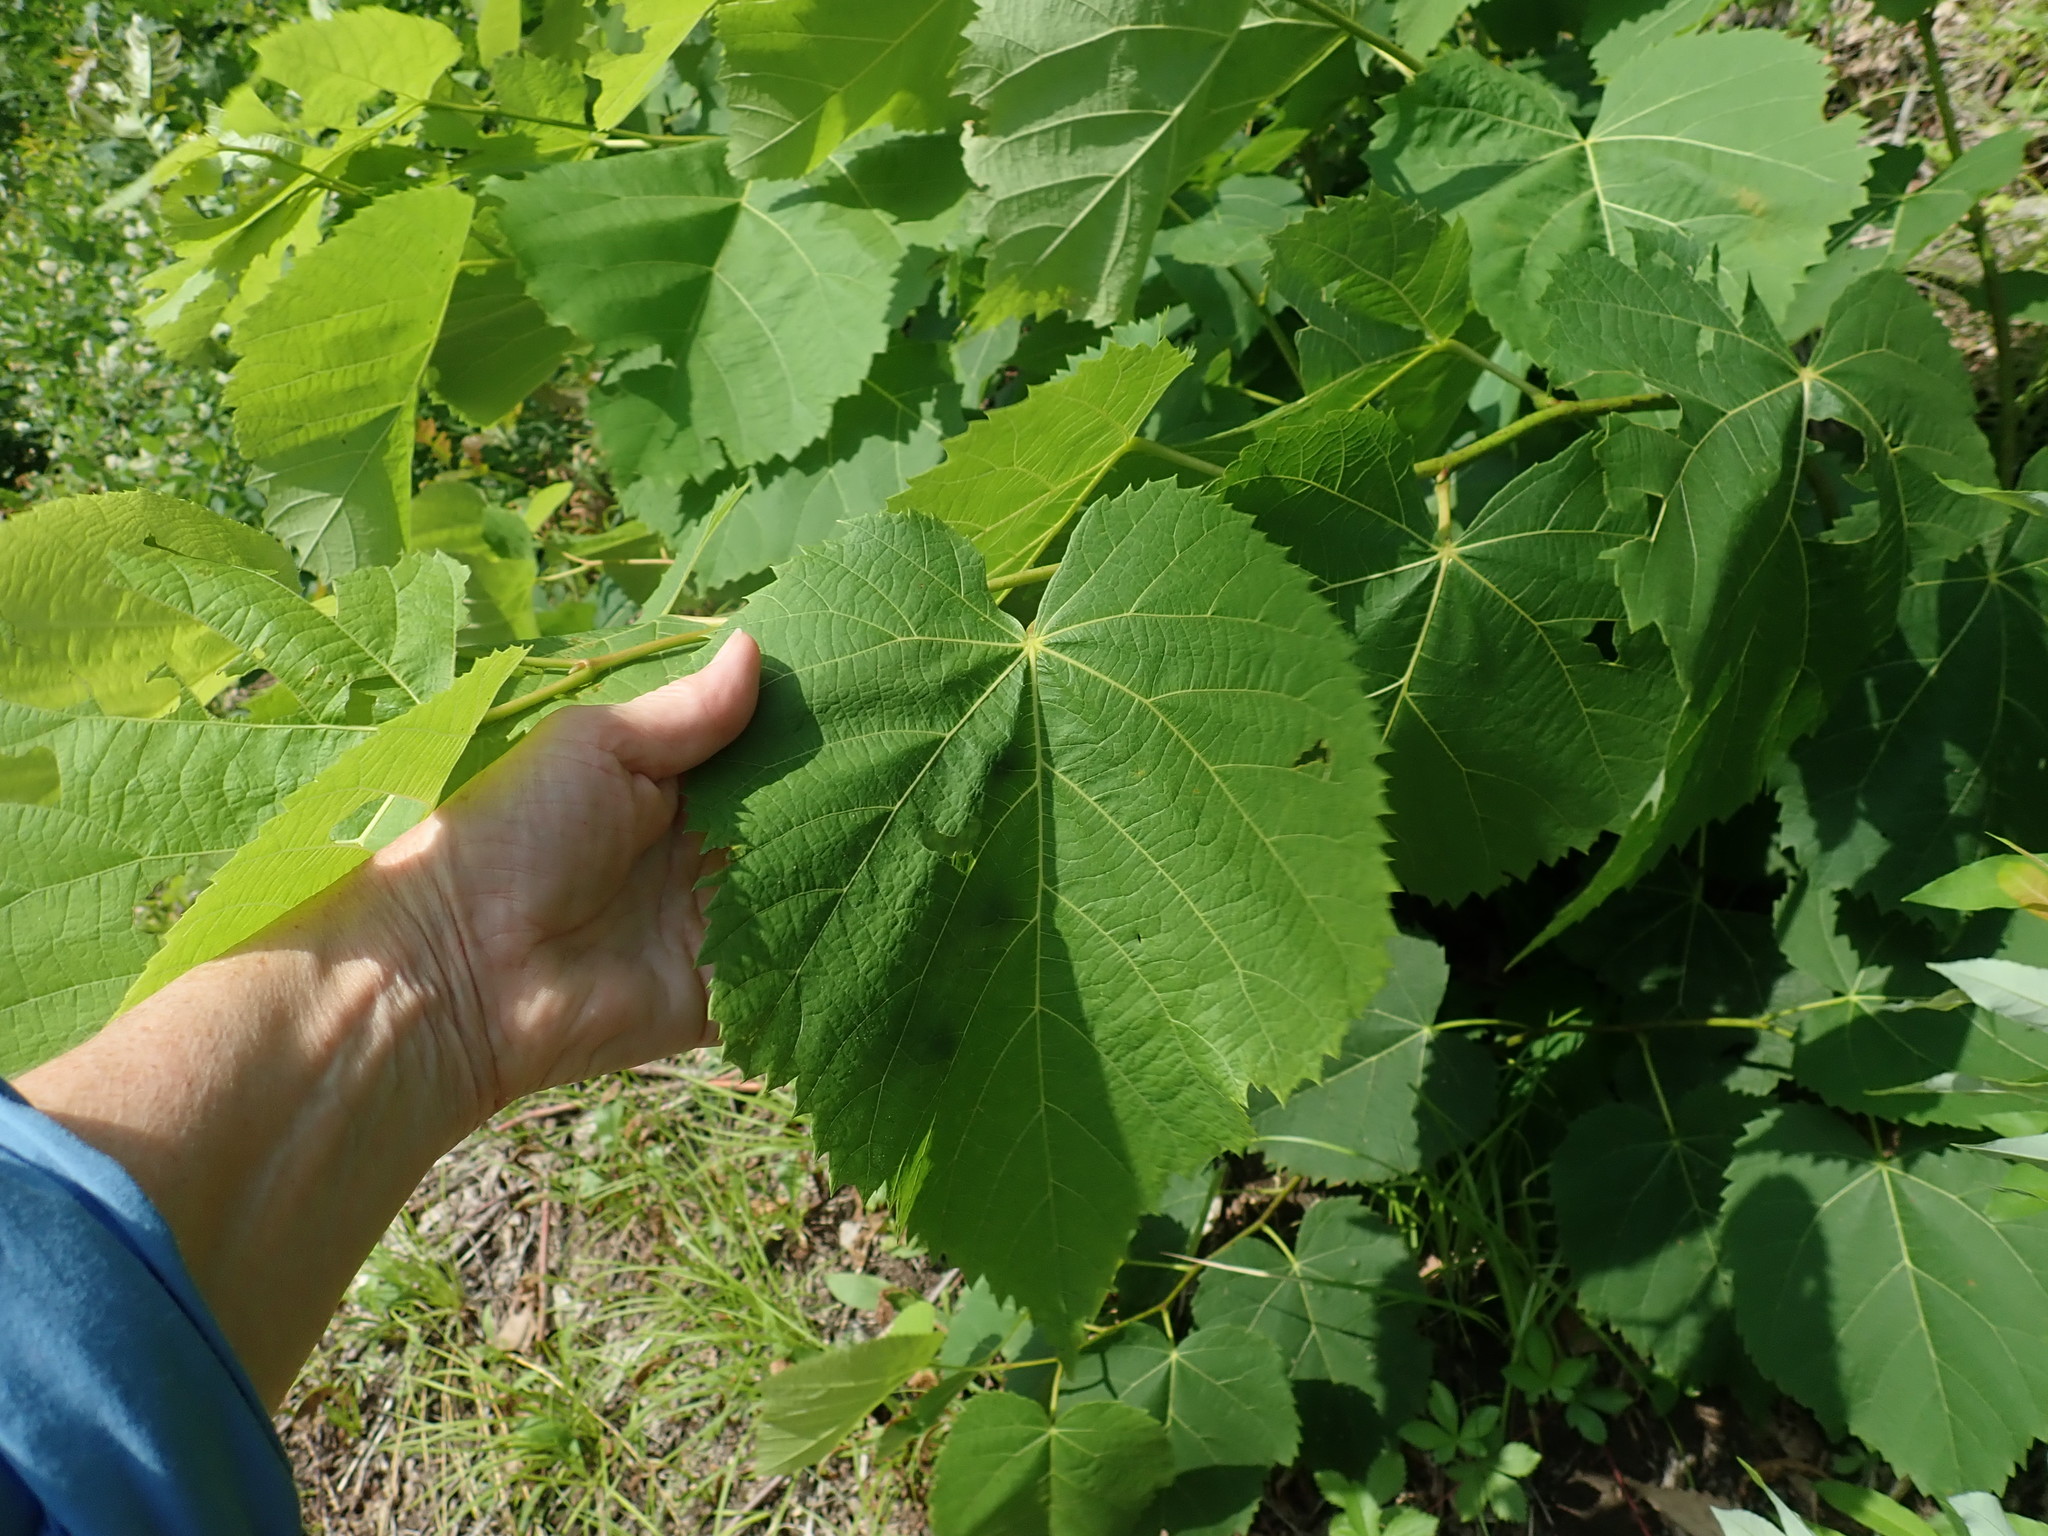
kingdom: Plantae
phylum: Tracheophyta
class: Magnoliopsida
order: Malvales
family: Malvaceae
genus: Tilia
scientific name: Tilia americana
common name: Basswood
